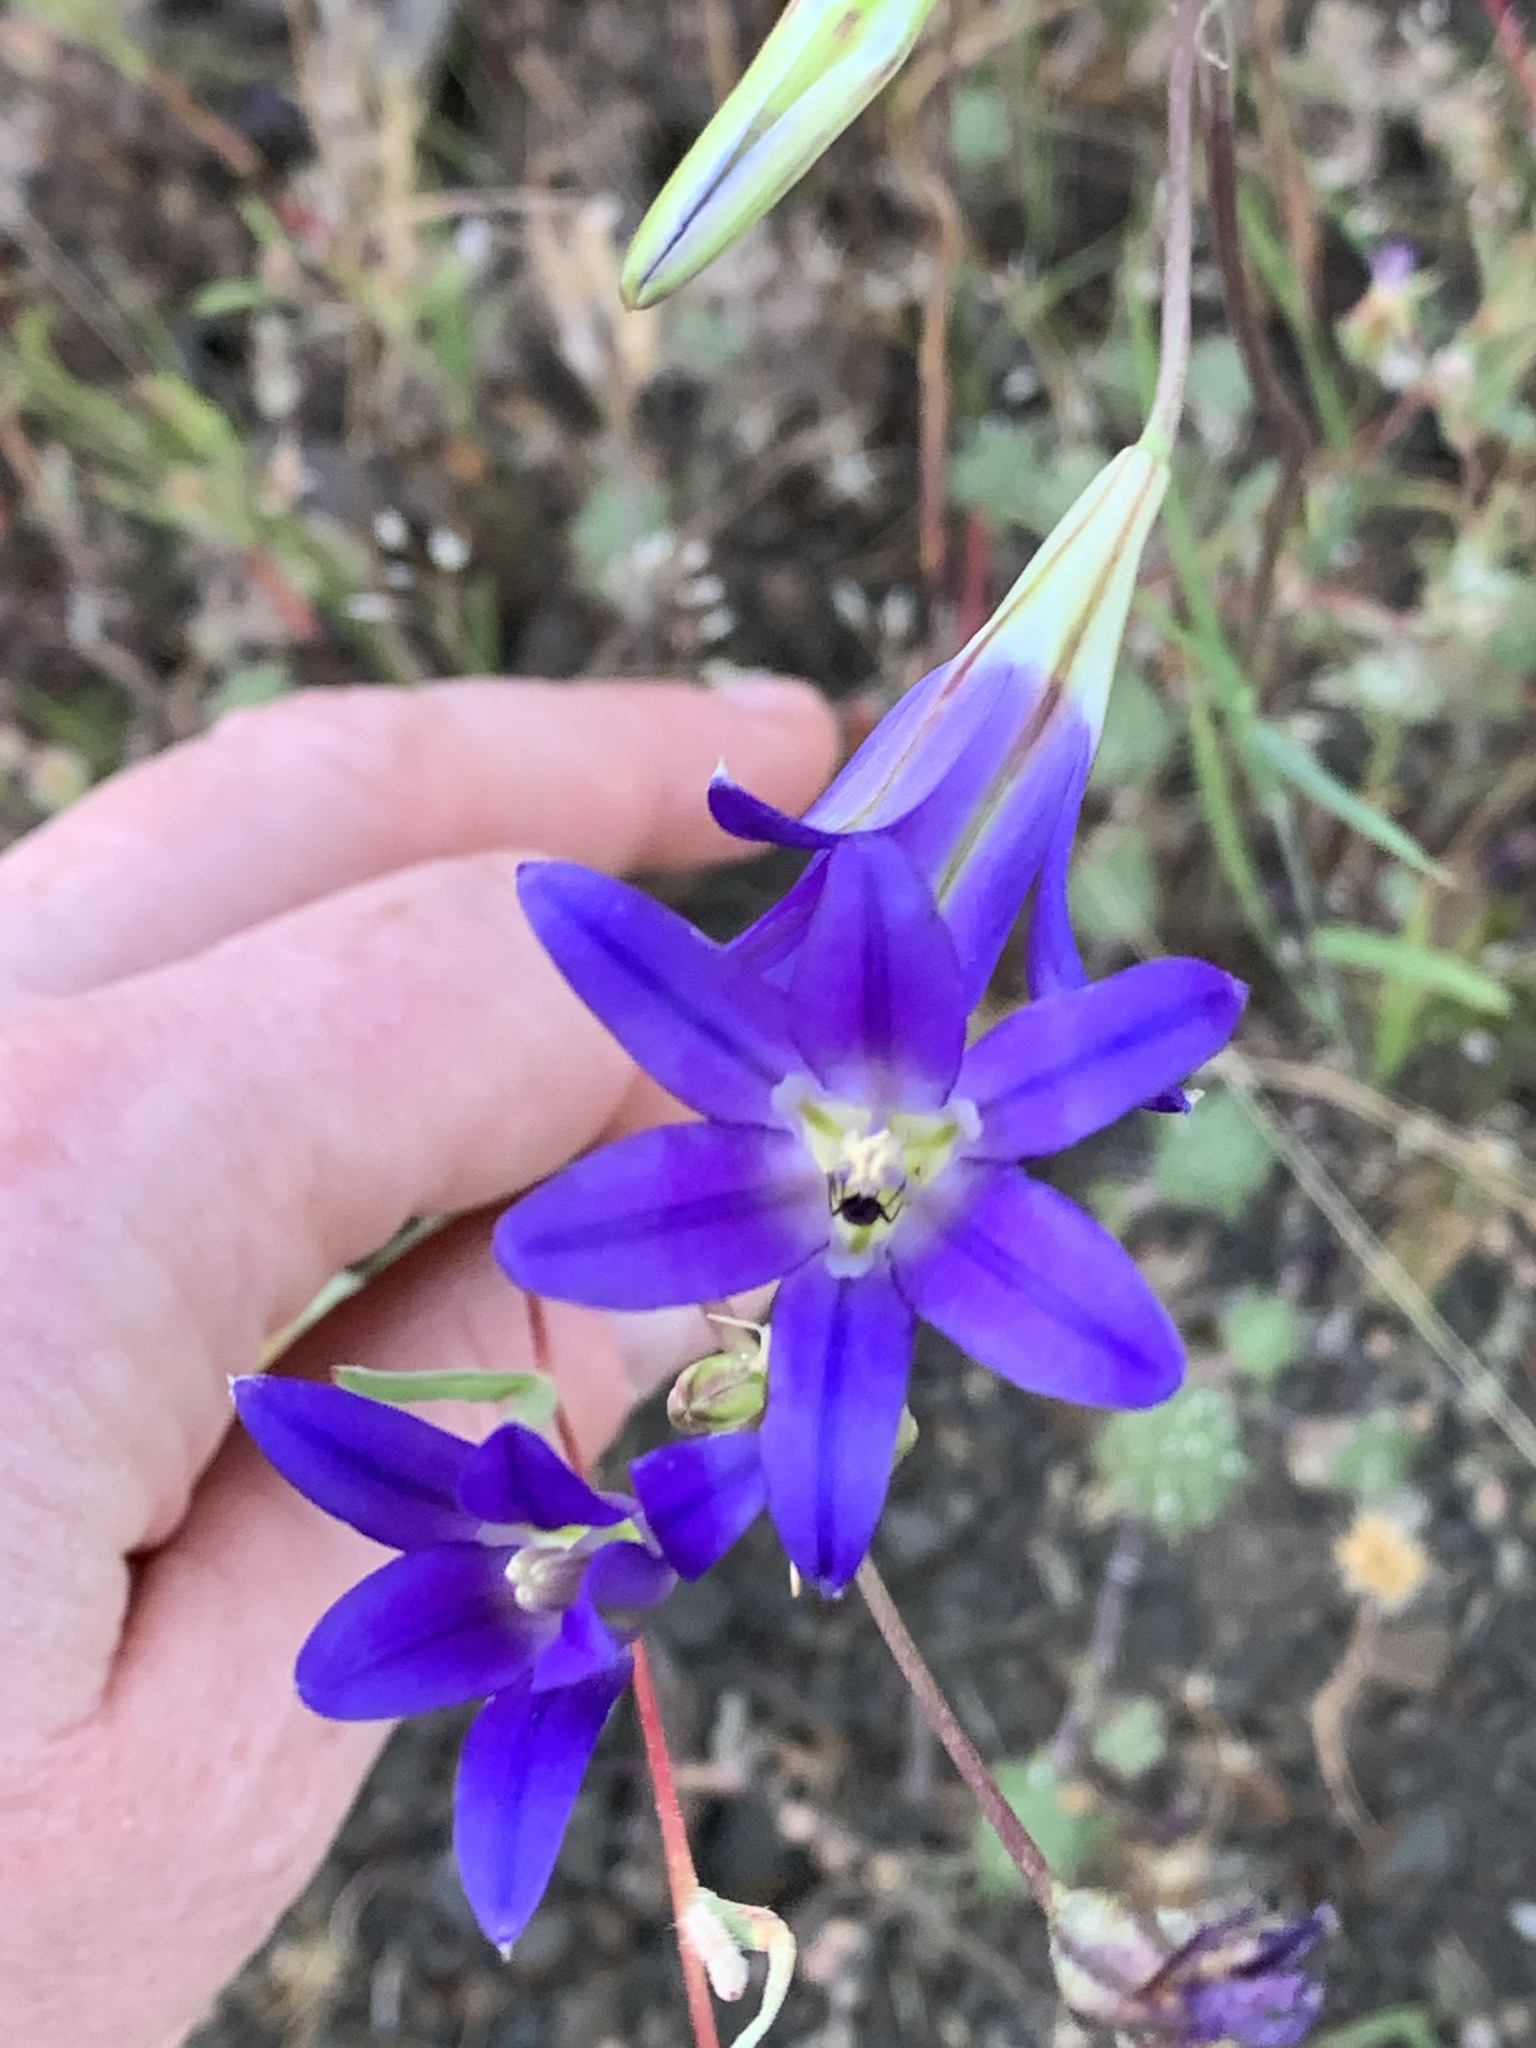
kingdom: Plantae
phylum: Tracheophyta
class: Liliopsida
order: Asparagales
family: Asparagaceae
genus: Brodiaea
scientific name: Brodiaea elegans
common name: Elegant cluster-lily
